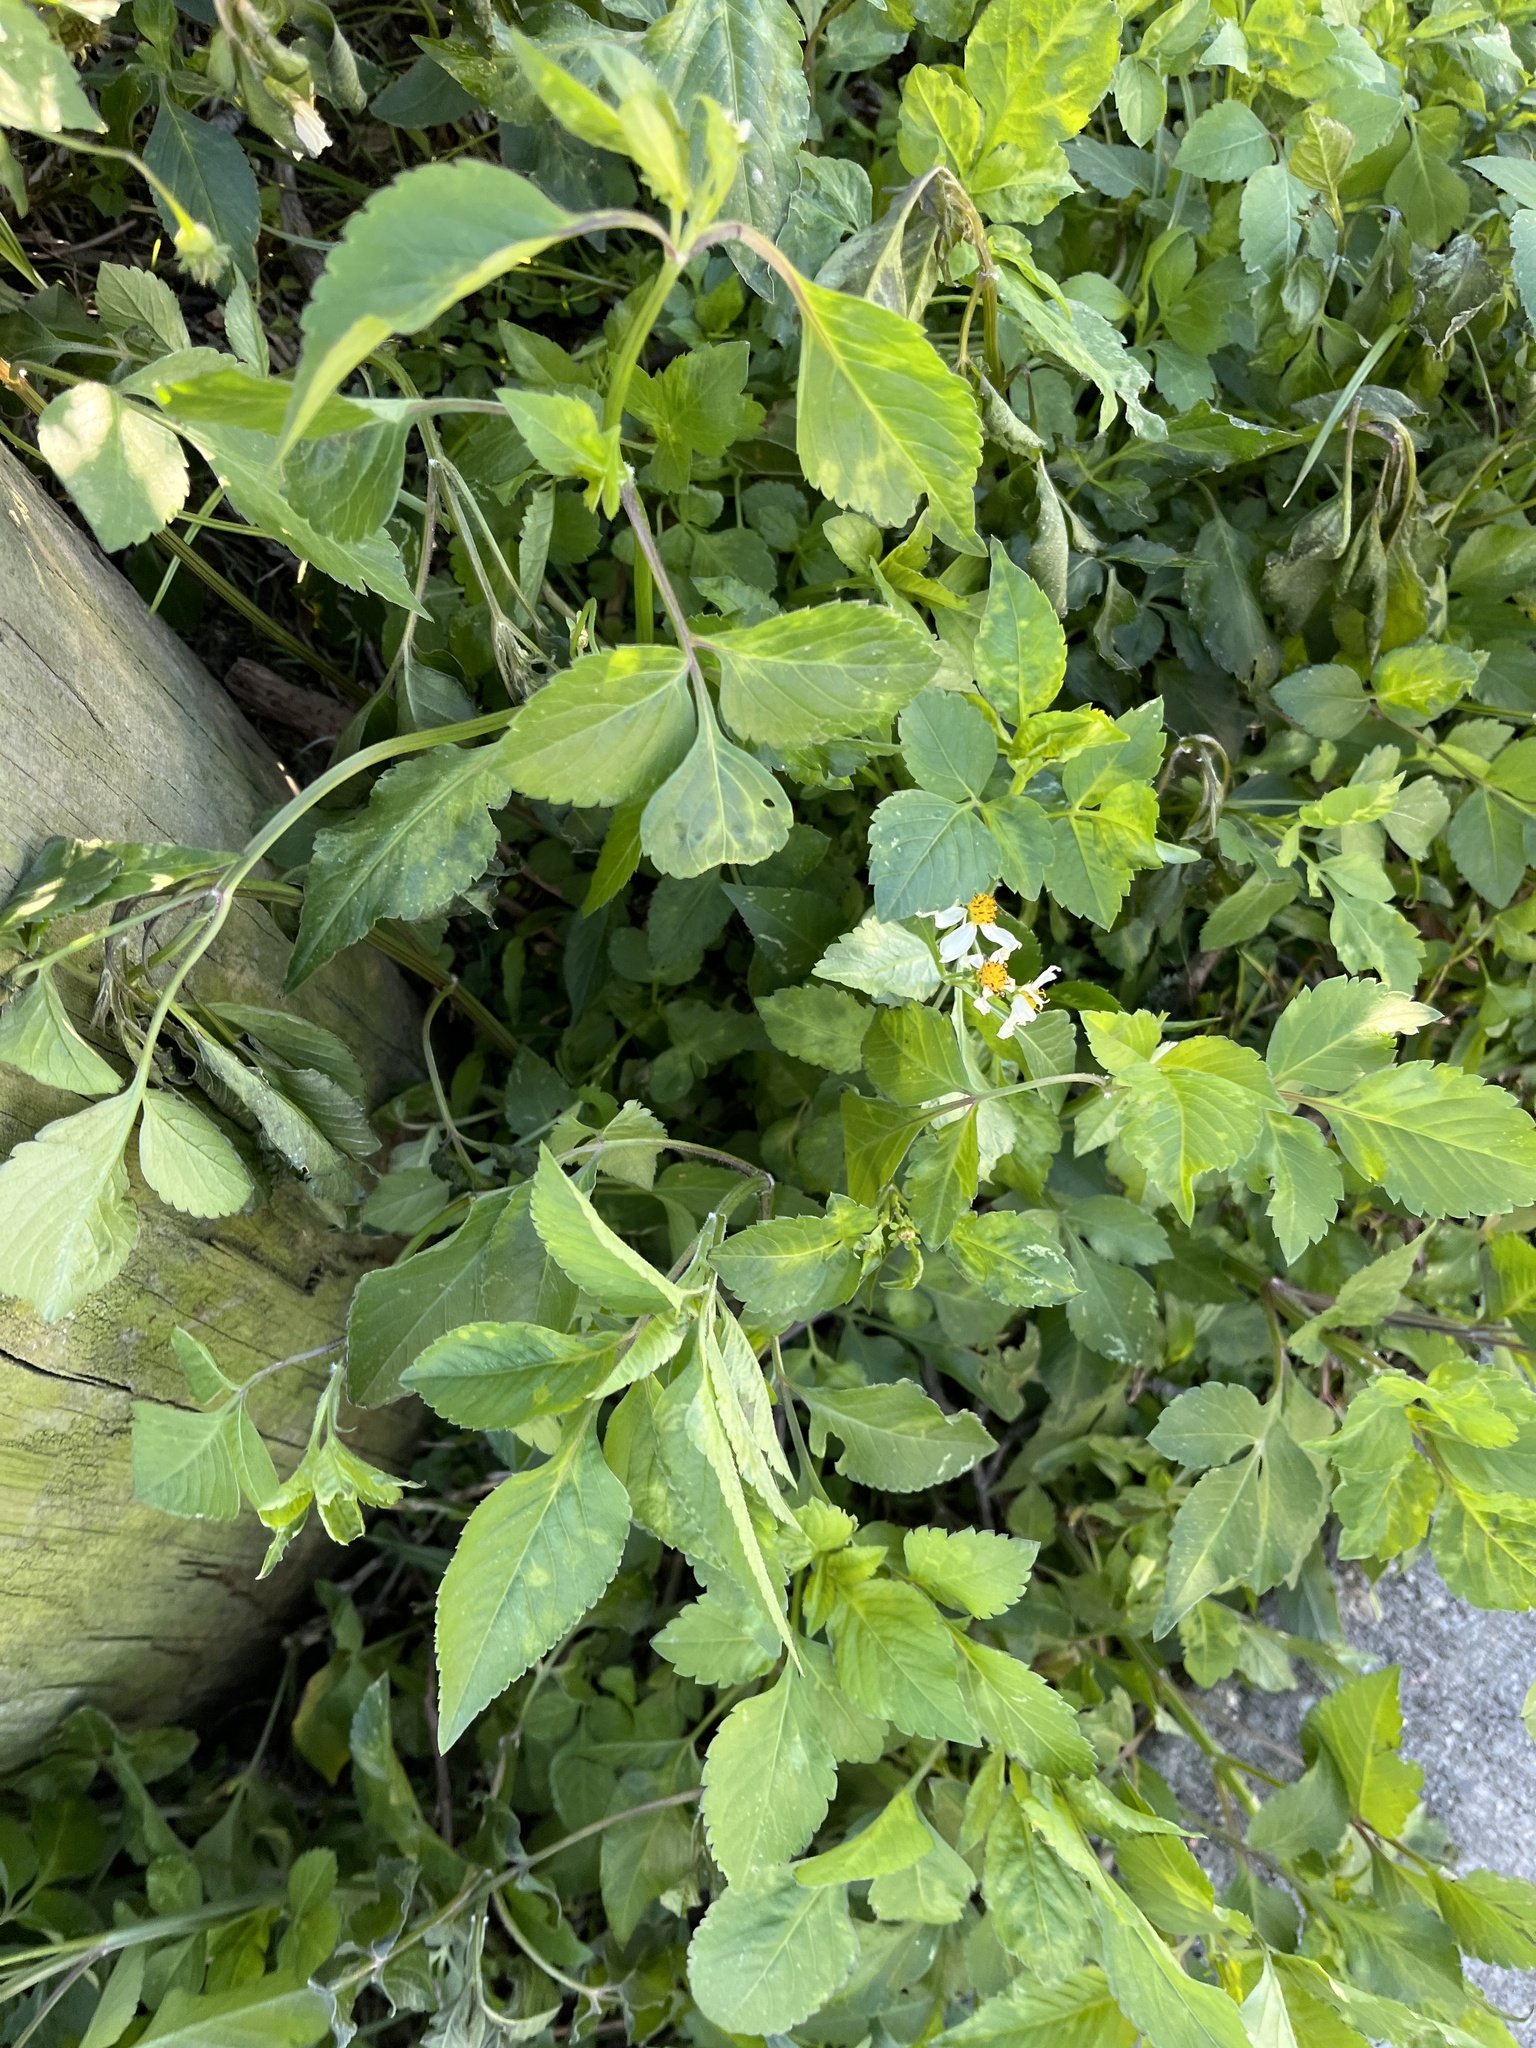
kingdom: Plantae
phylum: Tracheophyta
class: Magnoliopsida
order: Asterales
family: Asteraceae
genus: Bidens
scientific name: Bidens alba
